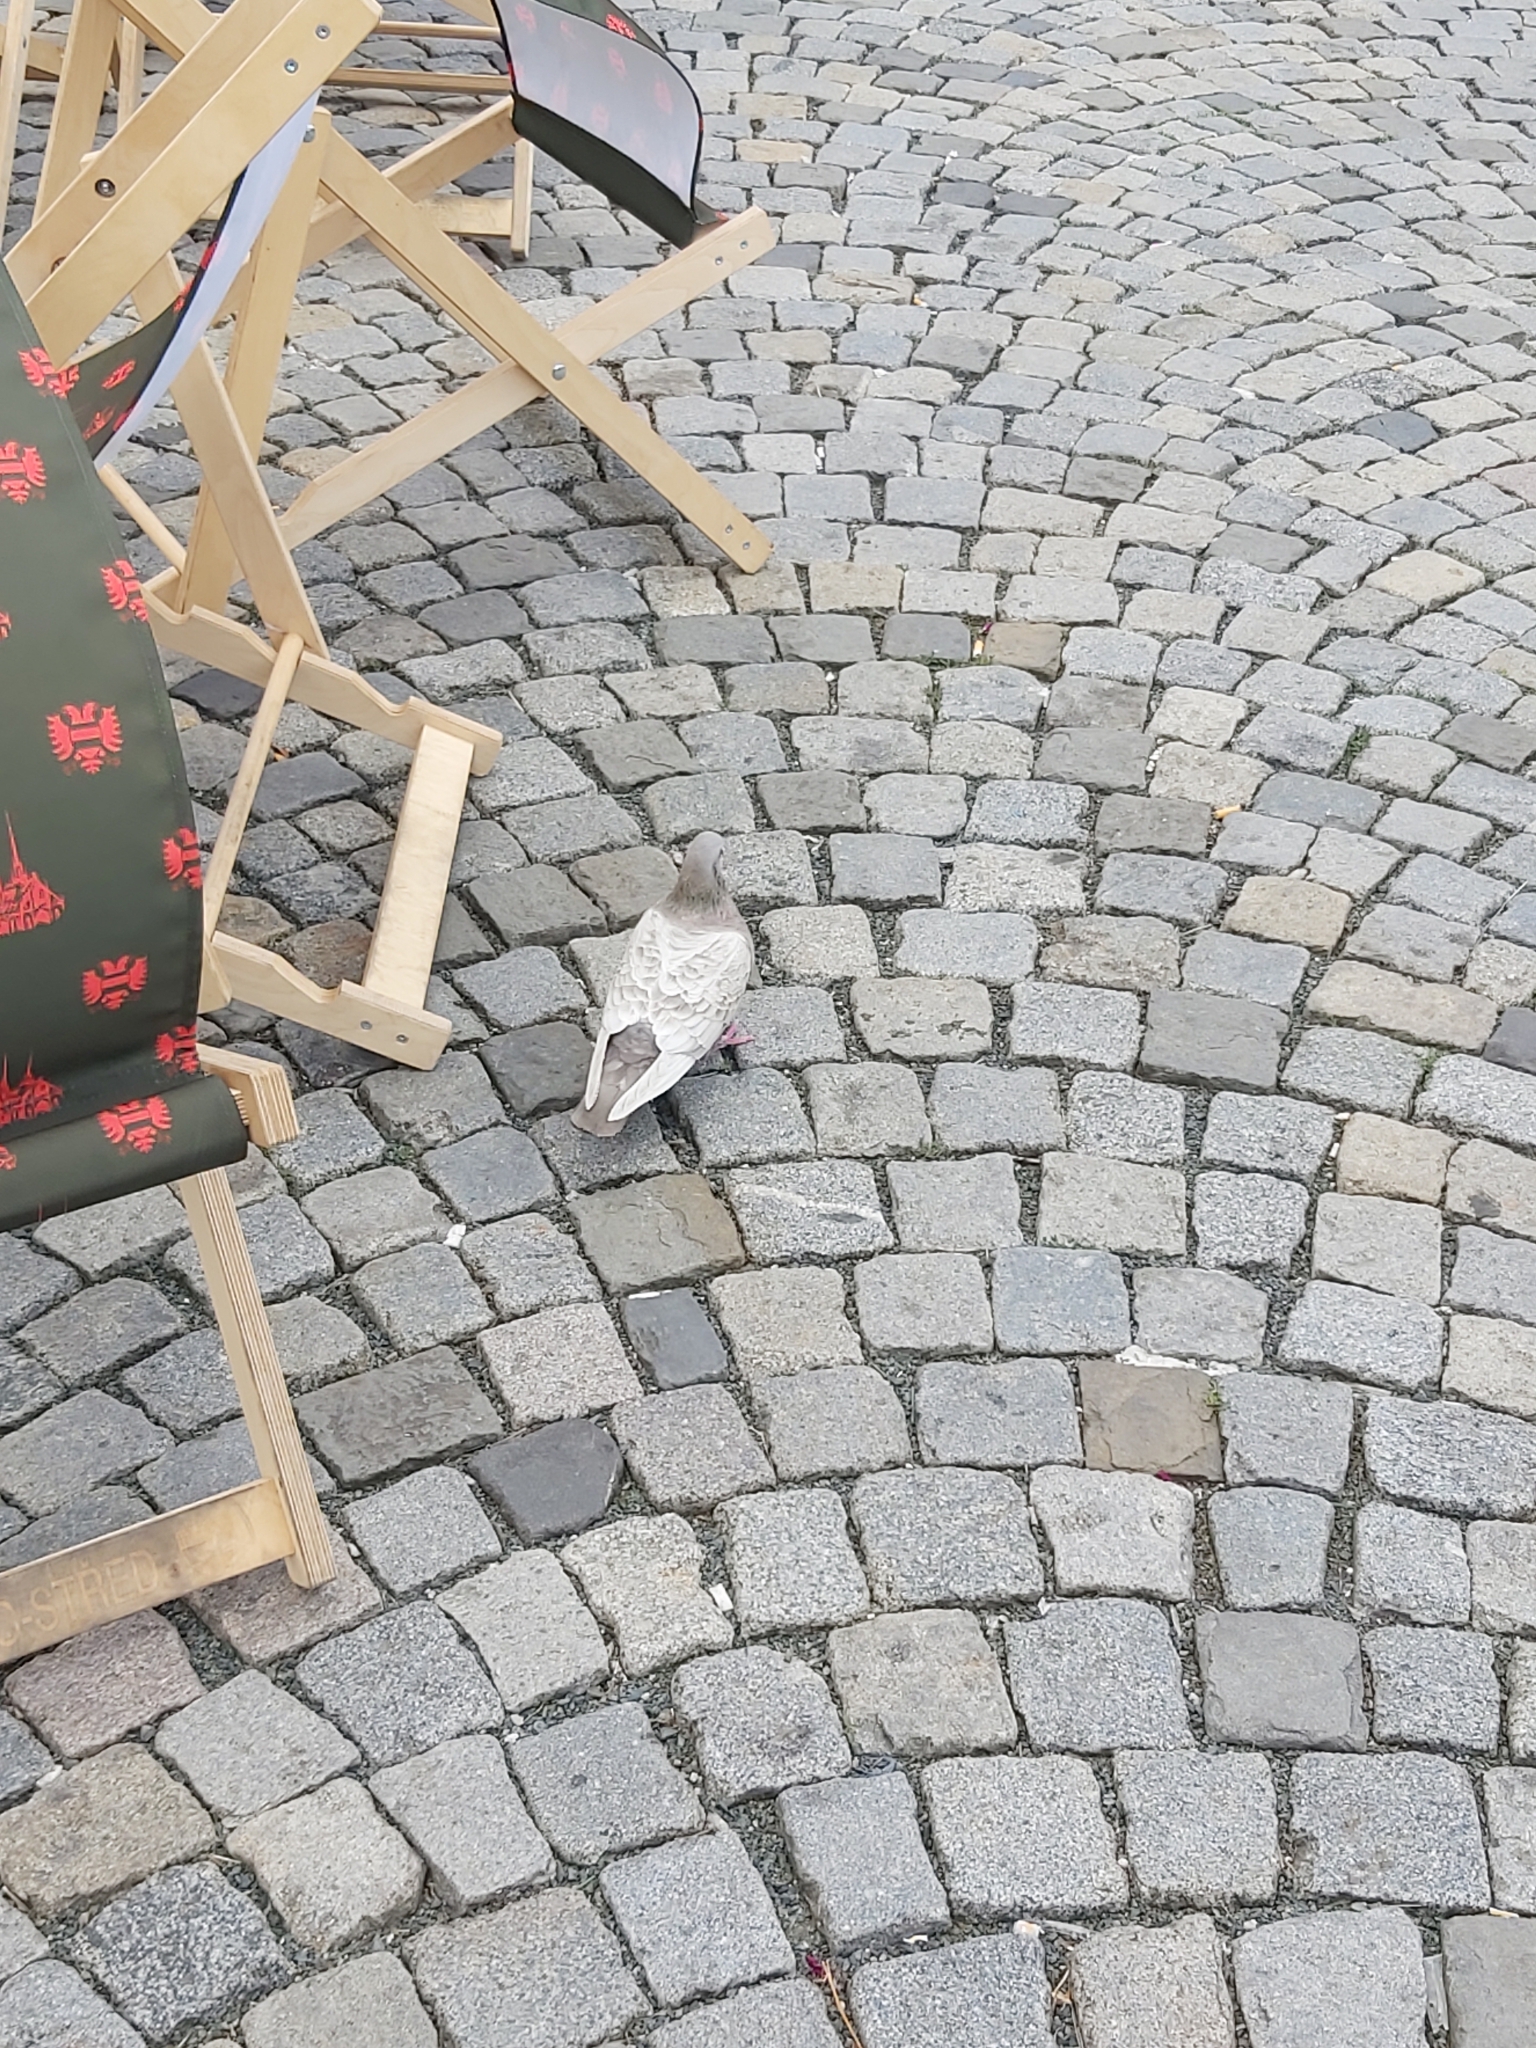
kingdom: Animalia
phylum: Chordata
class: Aves
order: Columbiformes
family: Columbidae
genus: Columba
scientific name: Columba livia
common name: Rock pigeon
